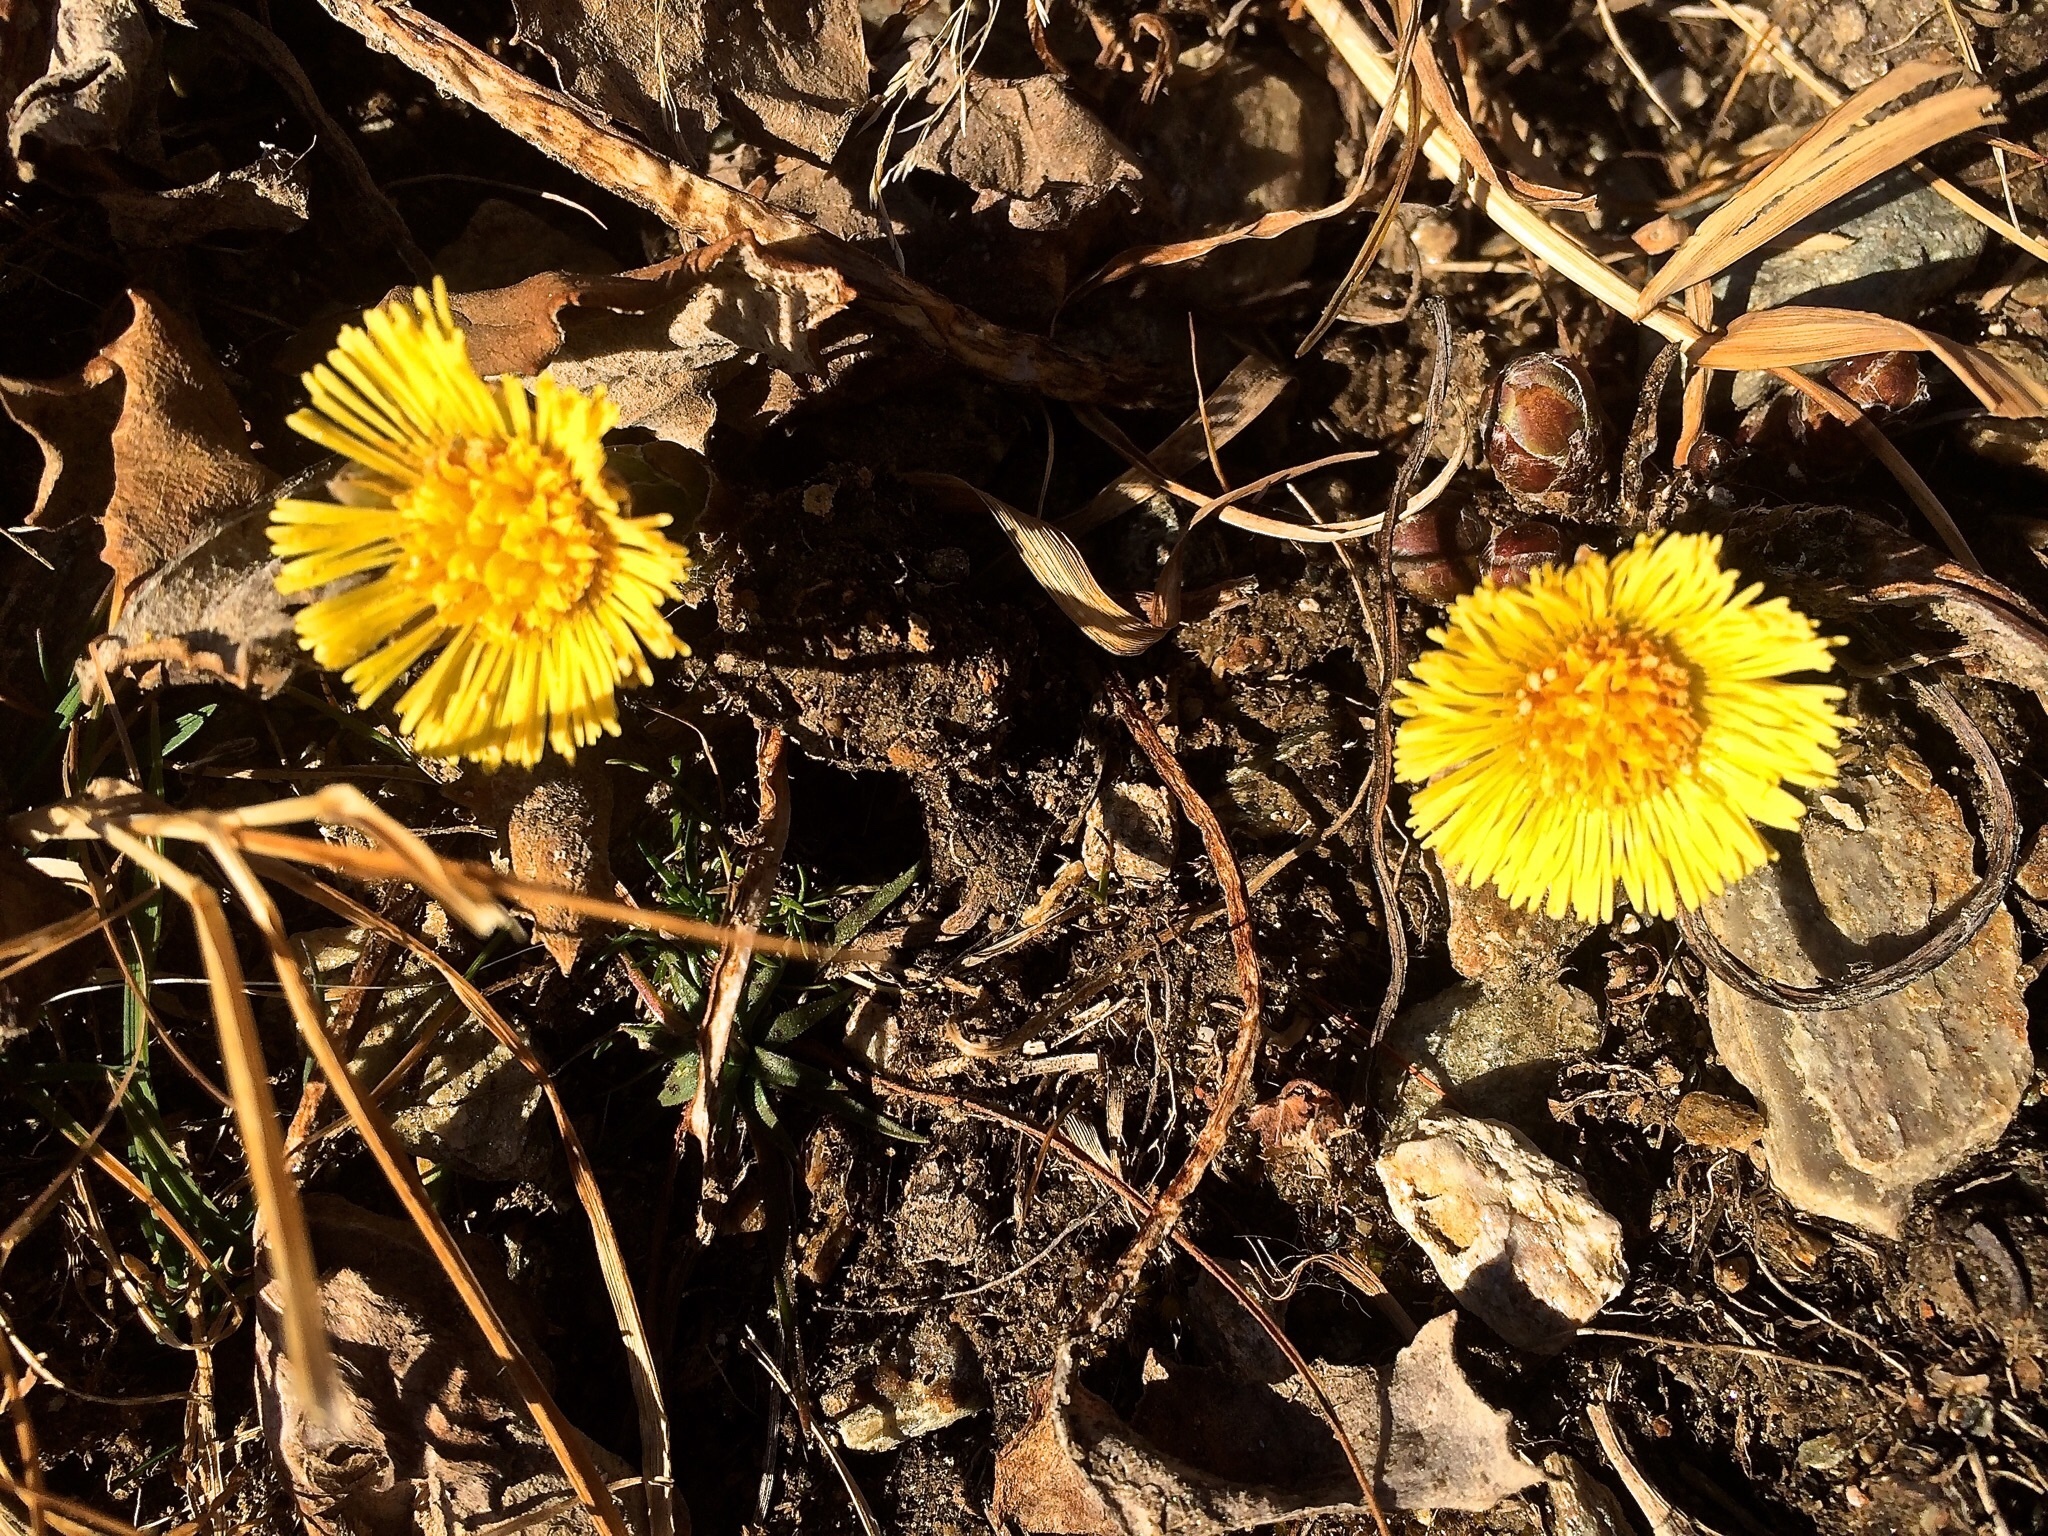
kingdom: Plantae
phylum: Tracheophyta
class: Magnoliopsida
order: Asterales
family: Asteraceae
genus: Tussilago
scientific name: Tussilago farfara
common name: Coltsfoot
